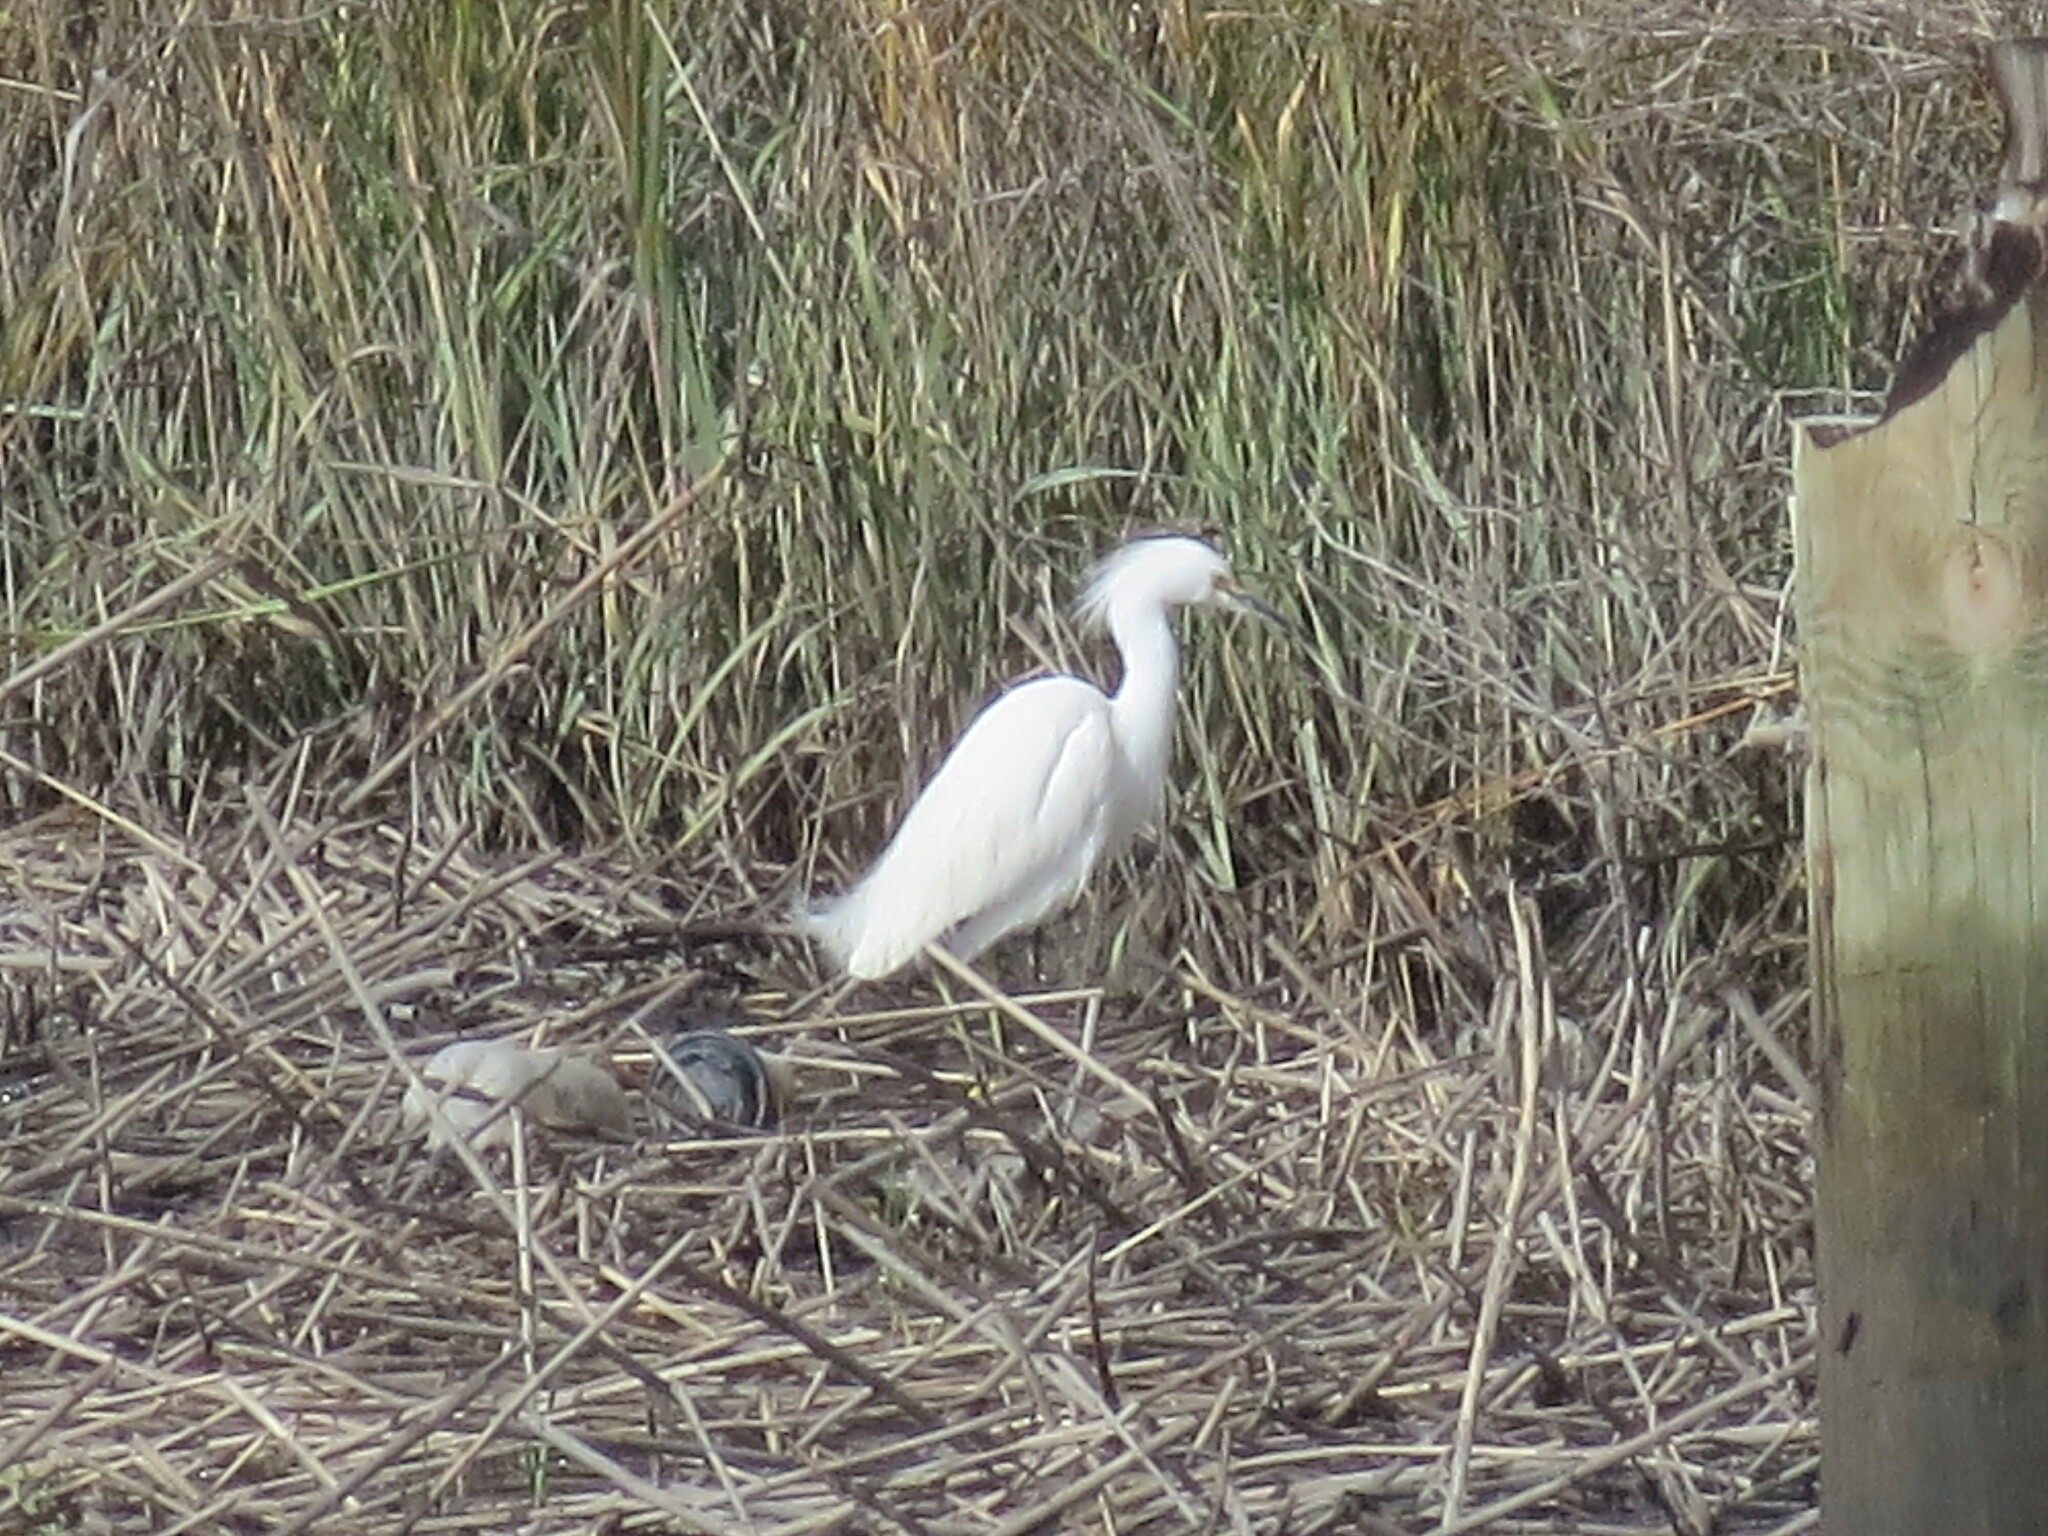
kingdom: Animalia
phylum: Chordata
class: Aves
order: Pelecaniformes
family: Ardeidae
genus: Egretta
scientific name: Egretta thula
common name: Snowy egret
